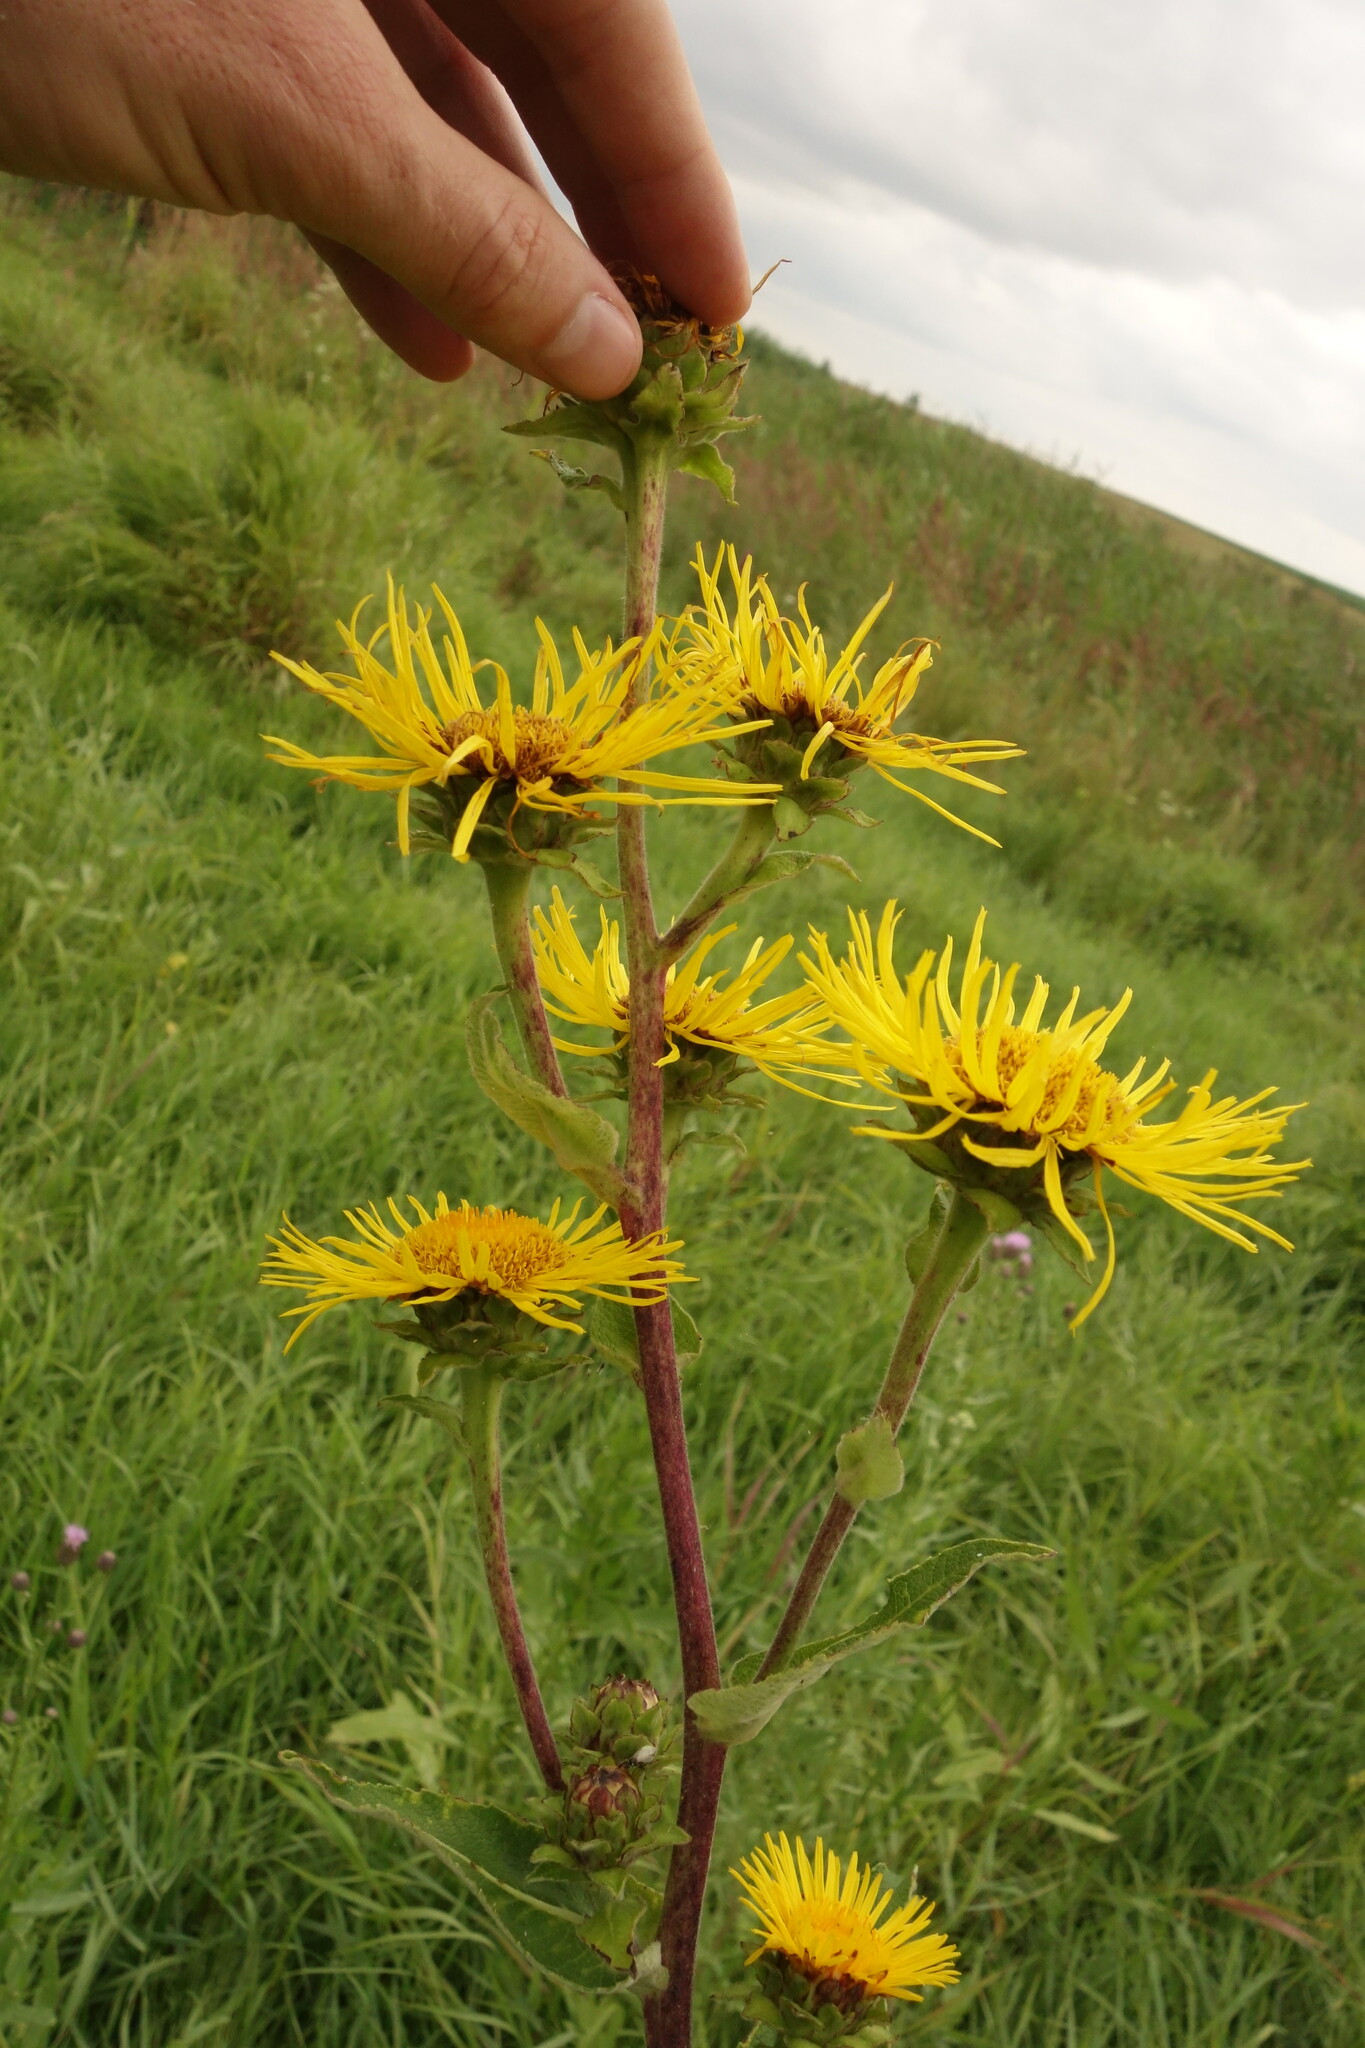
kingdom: Plantae
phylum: Tracheophyta
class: Magnoliopsida
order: Asterales
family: Asteraceae
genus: Inula
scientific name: Inula helenium
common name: Elecampane
